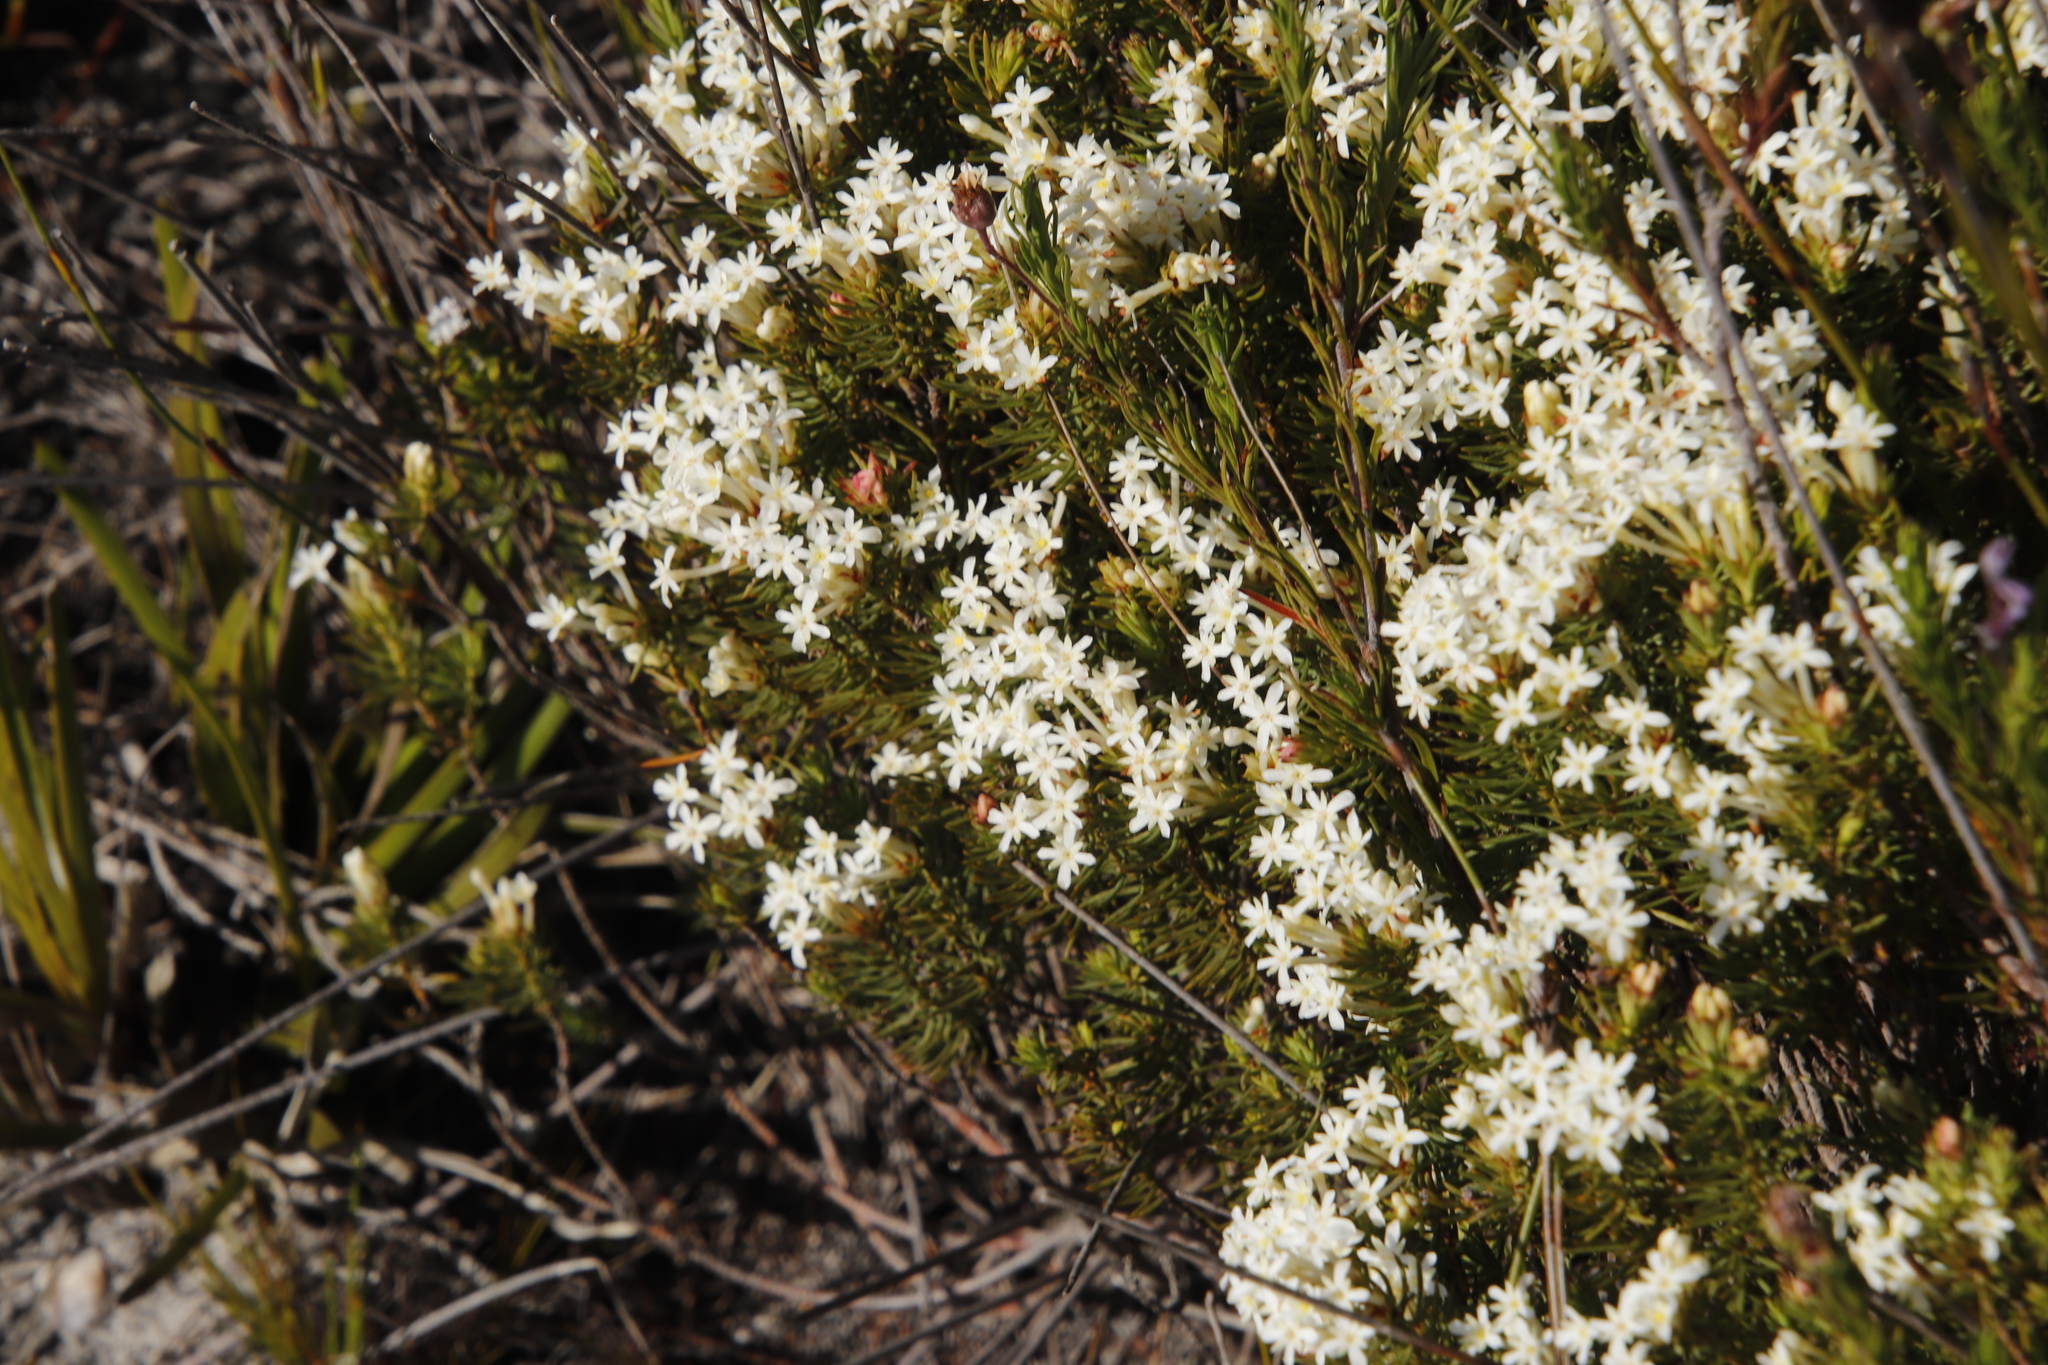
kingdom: Plantae
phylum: Tracheophyta
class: Magnoliopsida
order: Malvales
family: Thymelaeaceae
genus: Gnidia
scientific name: Gnidia pinifolia
